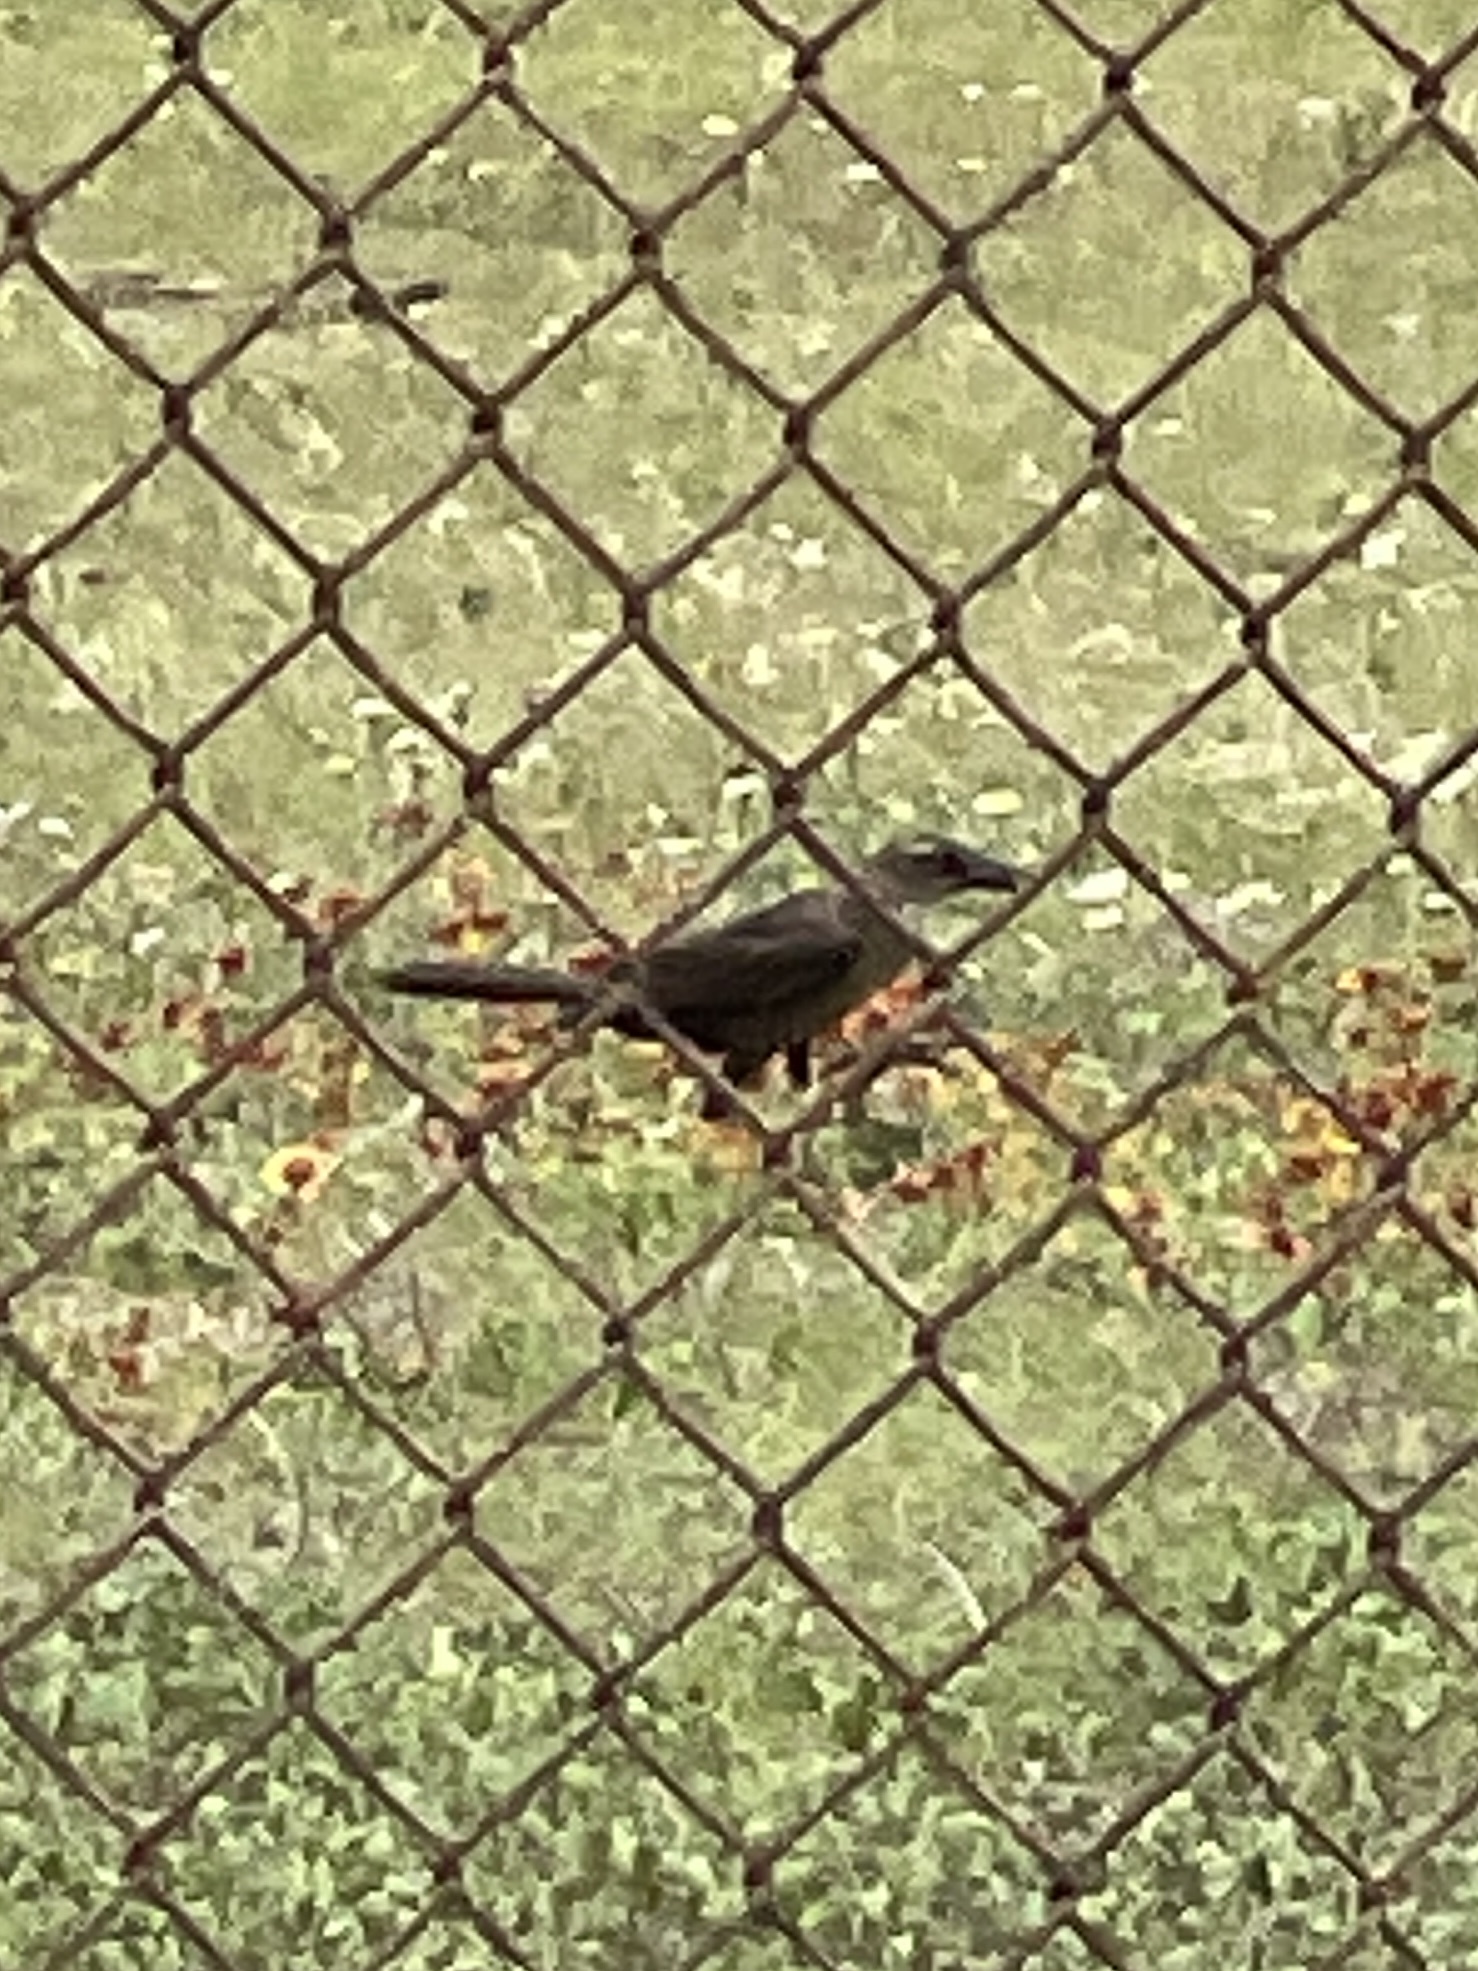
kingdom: Animalia
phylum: Chordata
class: Aves
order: Passeriformes
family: Icteridae
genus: Quiscalus
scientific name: Quiscalus mexicanus
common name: Great-tailed grackle
